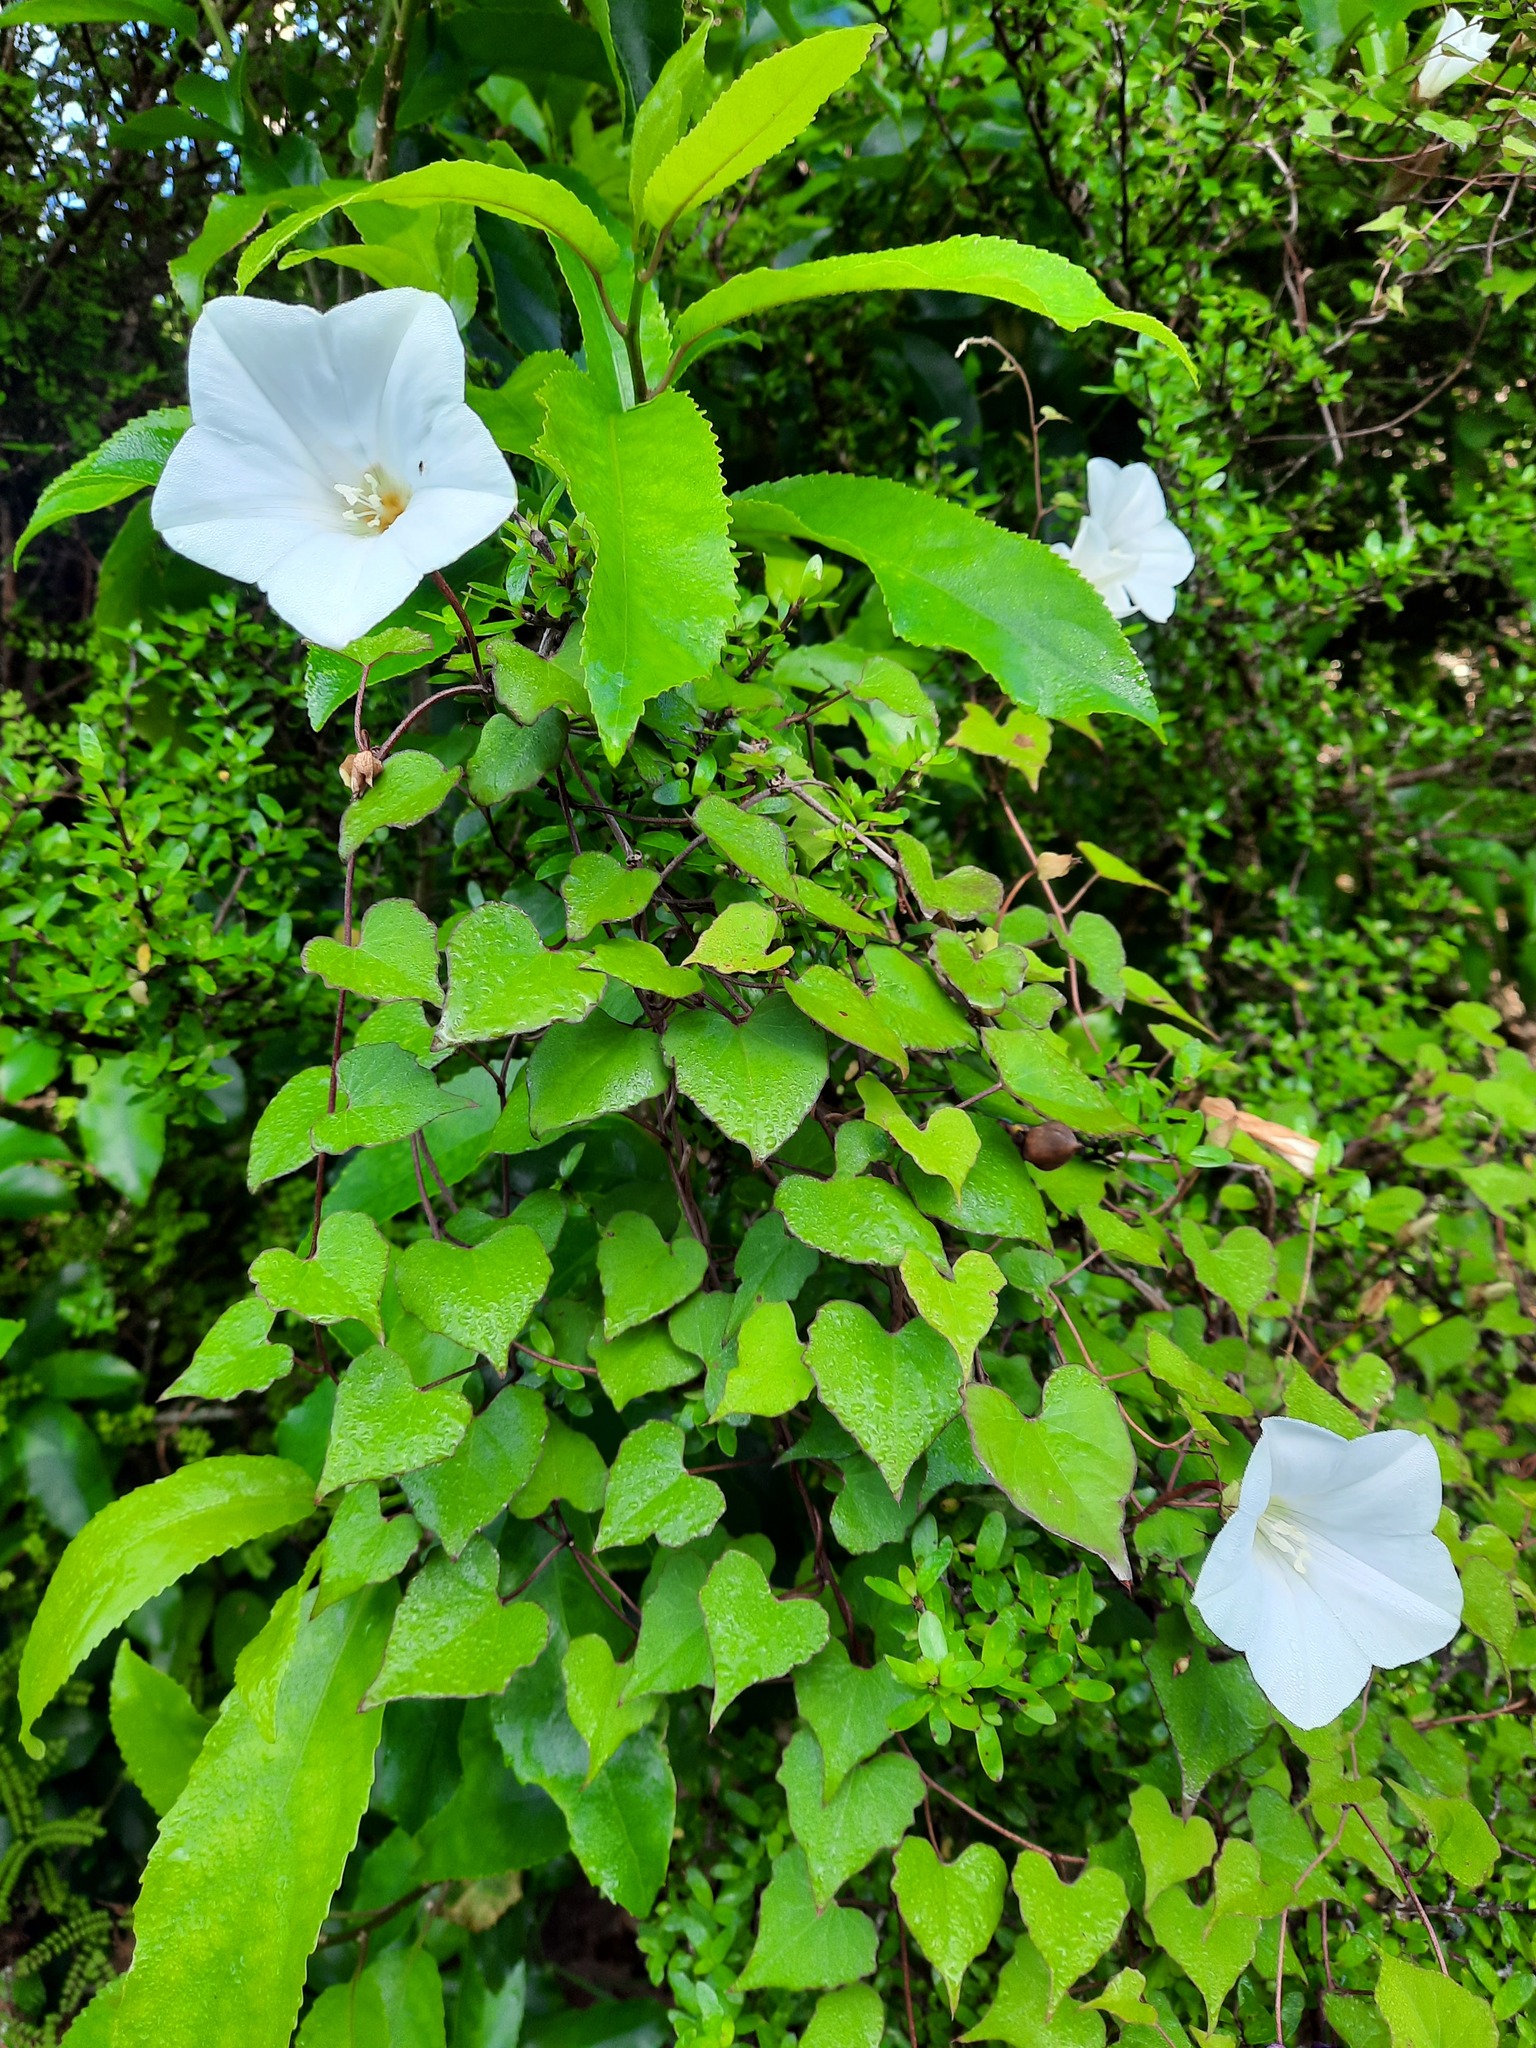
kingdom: Plantae
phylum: Tracheophyta
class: Magnoliopsida
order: Solanales
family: Convolvulaceae
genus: Calystegia
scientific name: Calystegia tuguriorum
